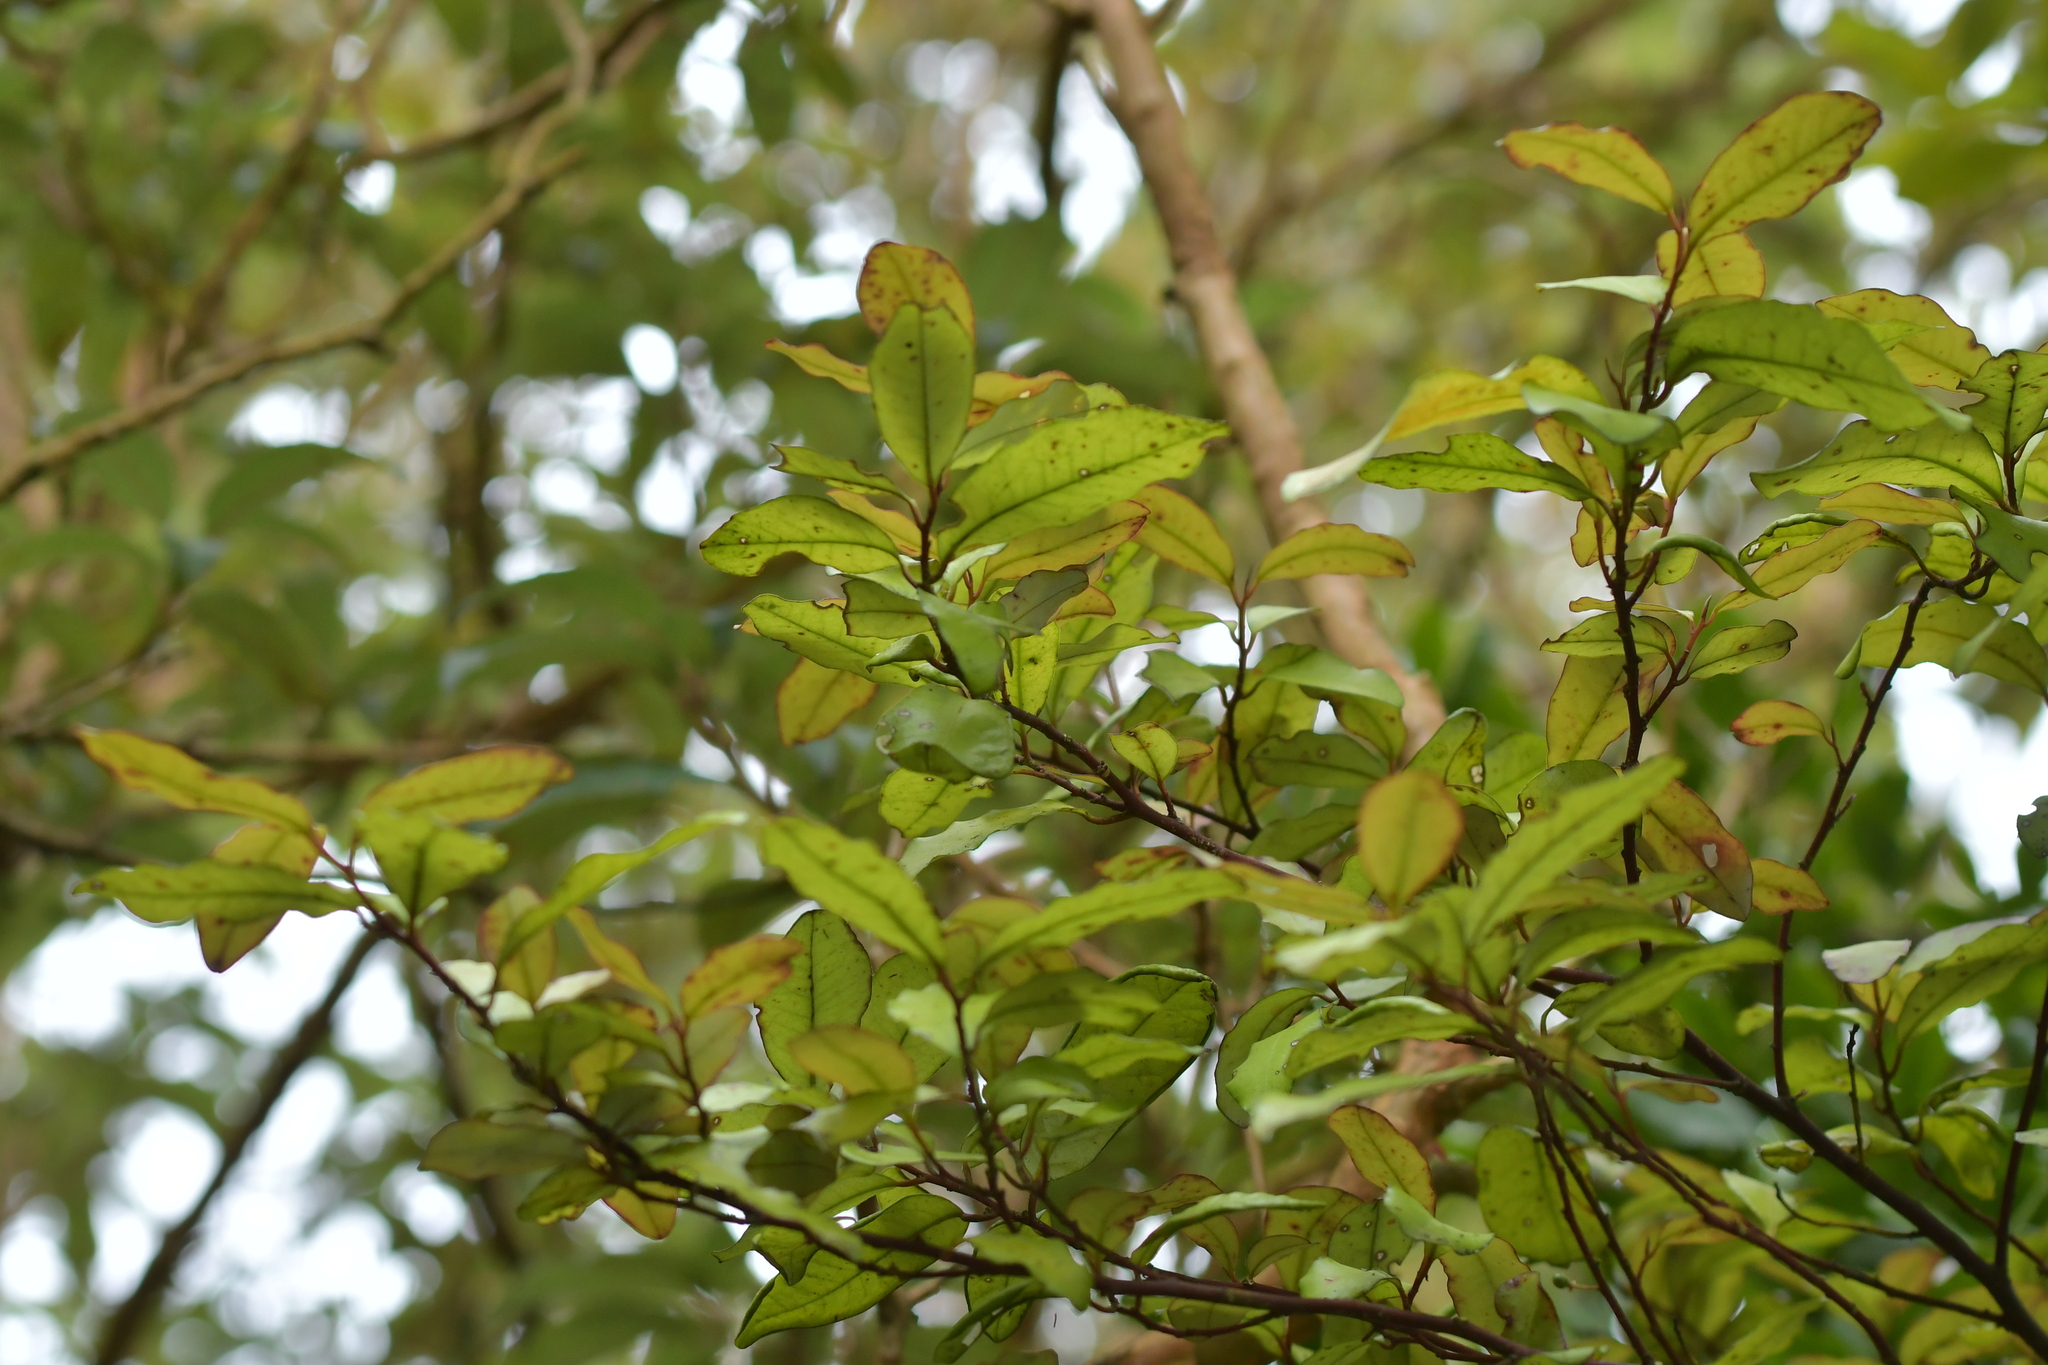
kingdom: Plantae
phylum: Tracheophyta
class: Magnoliopsida
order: Canellales
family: Winteraceae
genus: Pseudowintera
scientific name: Pseudowintera colorata
